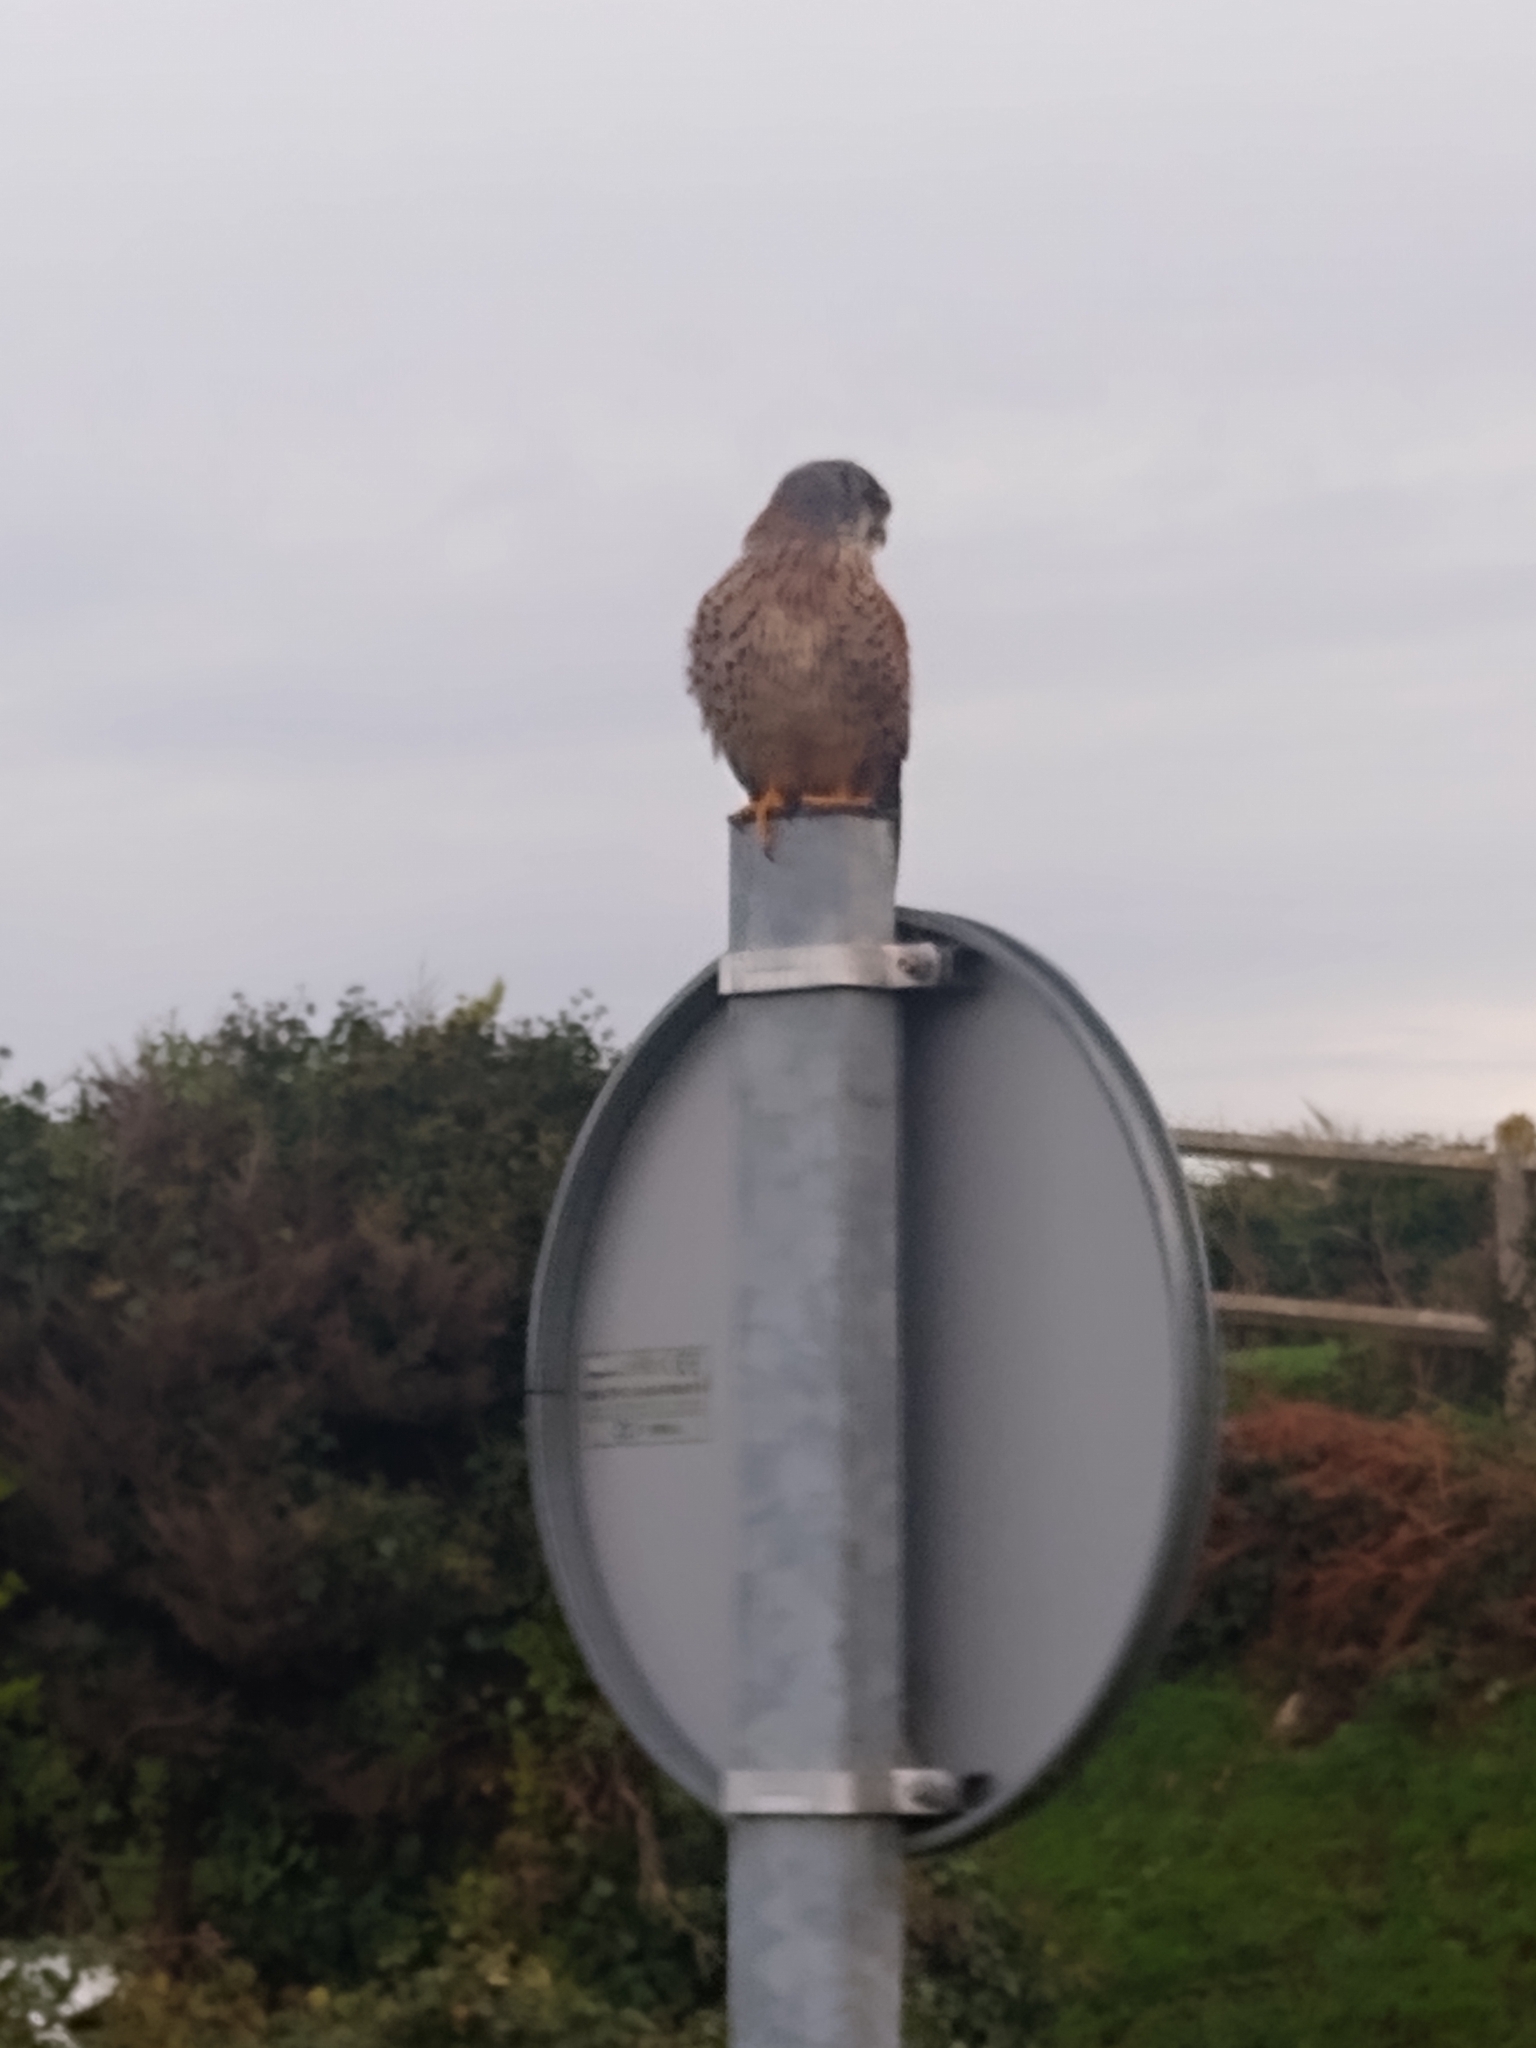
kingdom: Animalia
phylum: Chordata
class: Aves
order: Falconiformes
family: Falconidae
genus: Falco
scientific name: Falco tinnunculus
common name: Common kestrel
